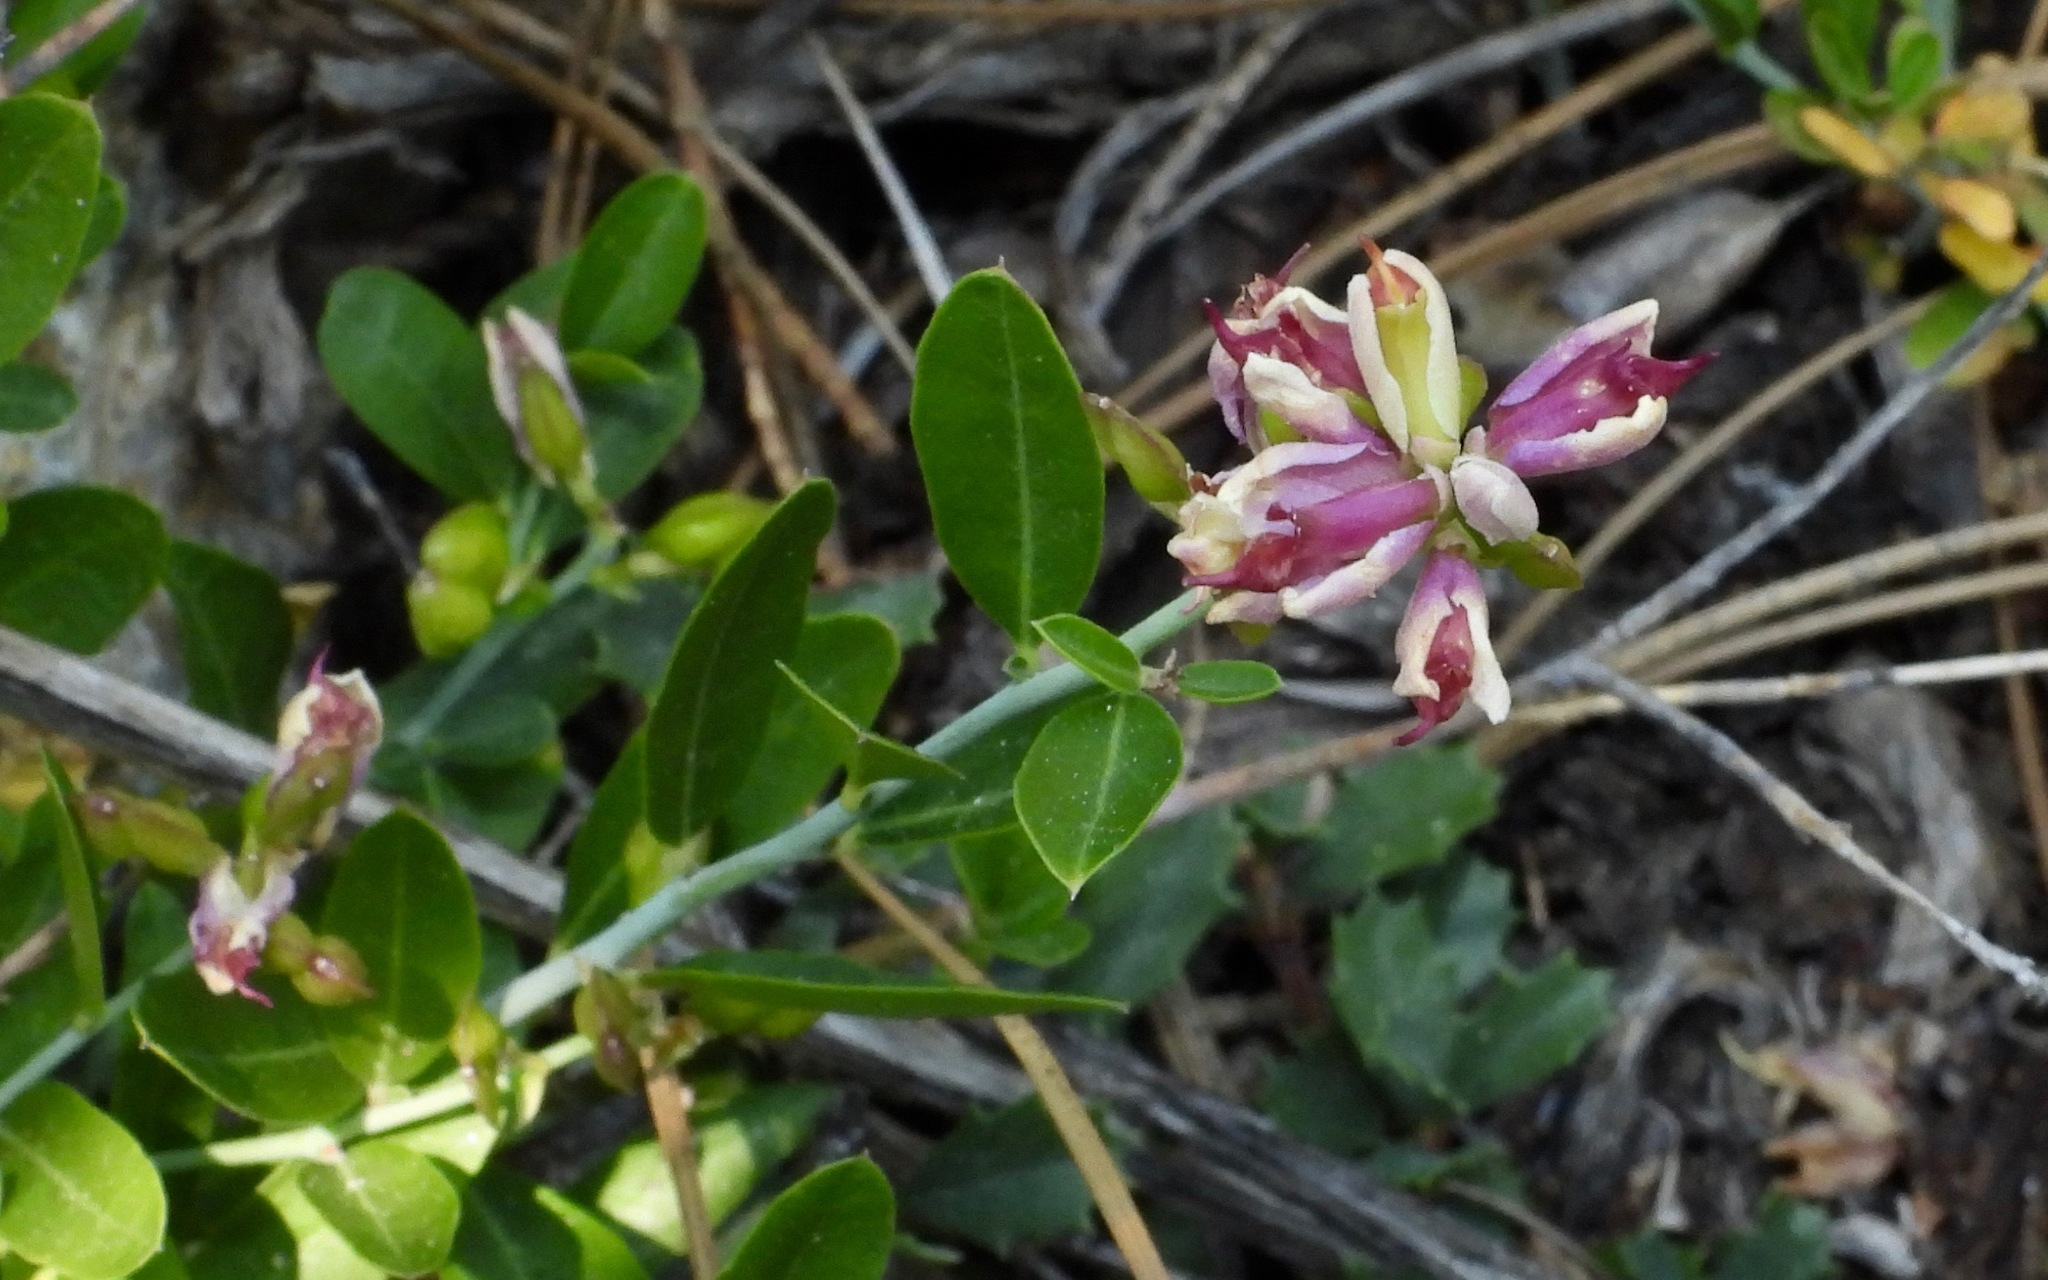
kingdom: Plantae
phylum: Tracheophyta
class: Magnoliopsida
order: Fabales
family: Polygalaceae
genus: Rhinotropis
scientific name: Rhinotropis cornuta
